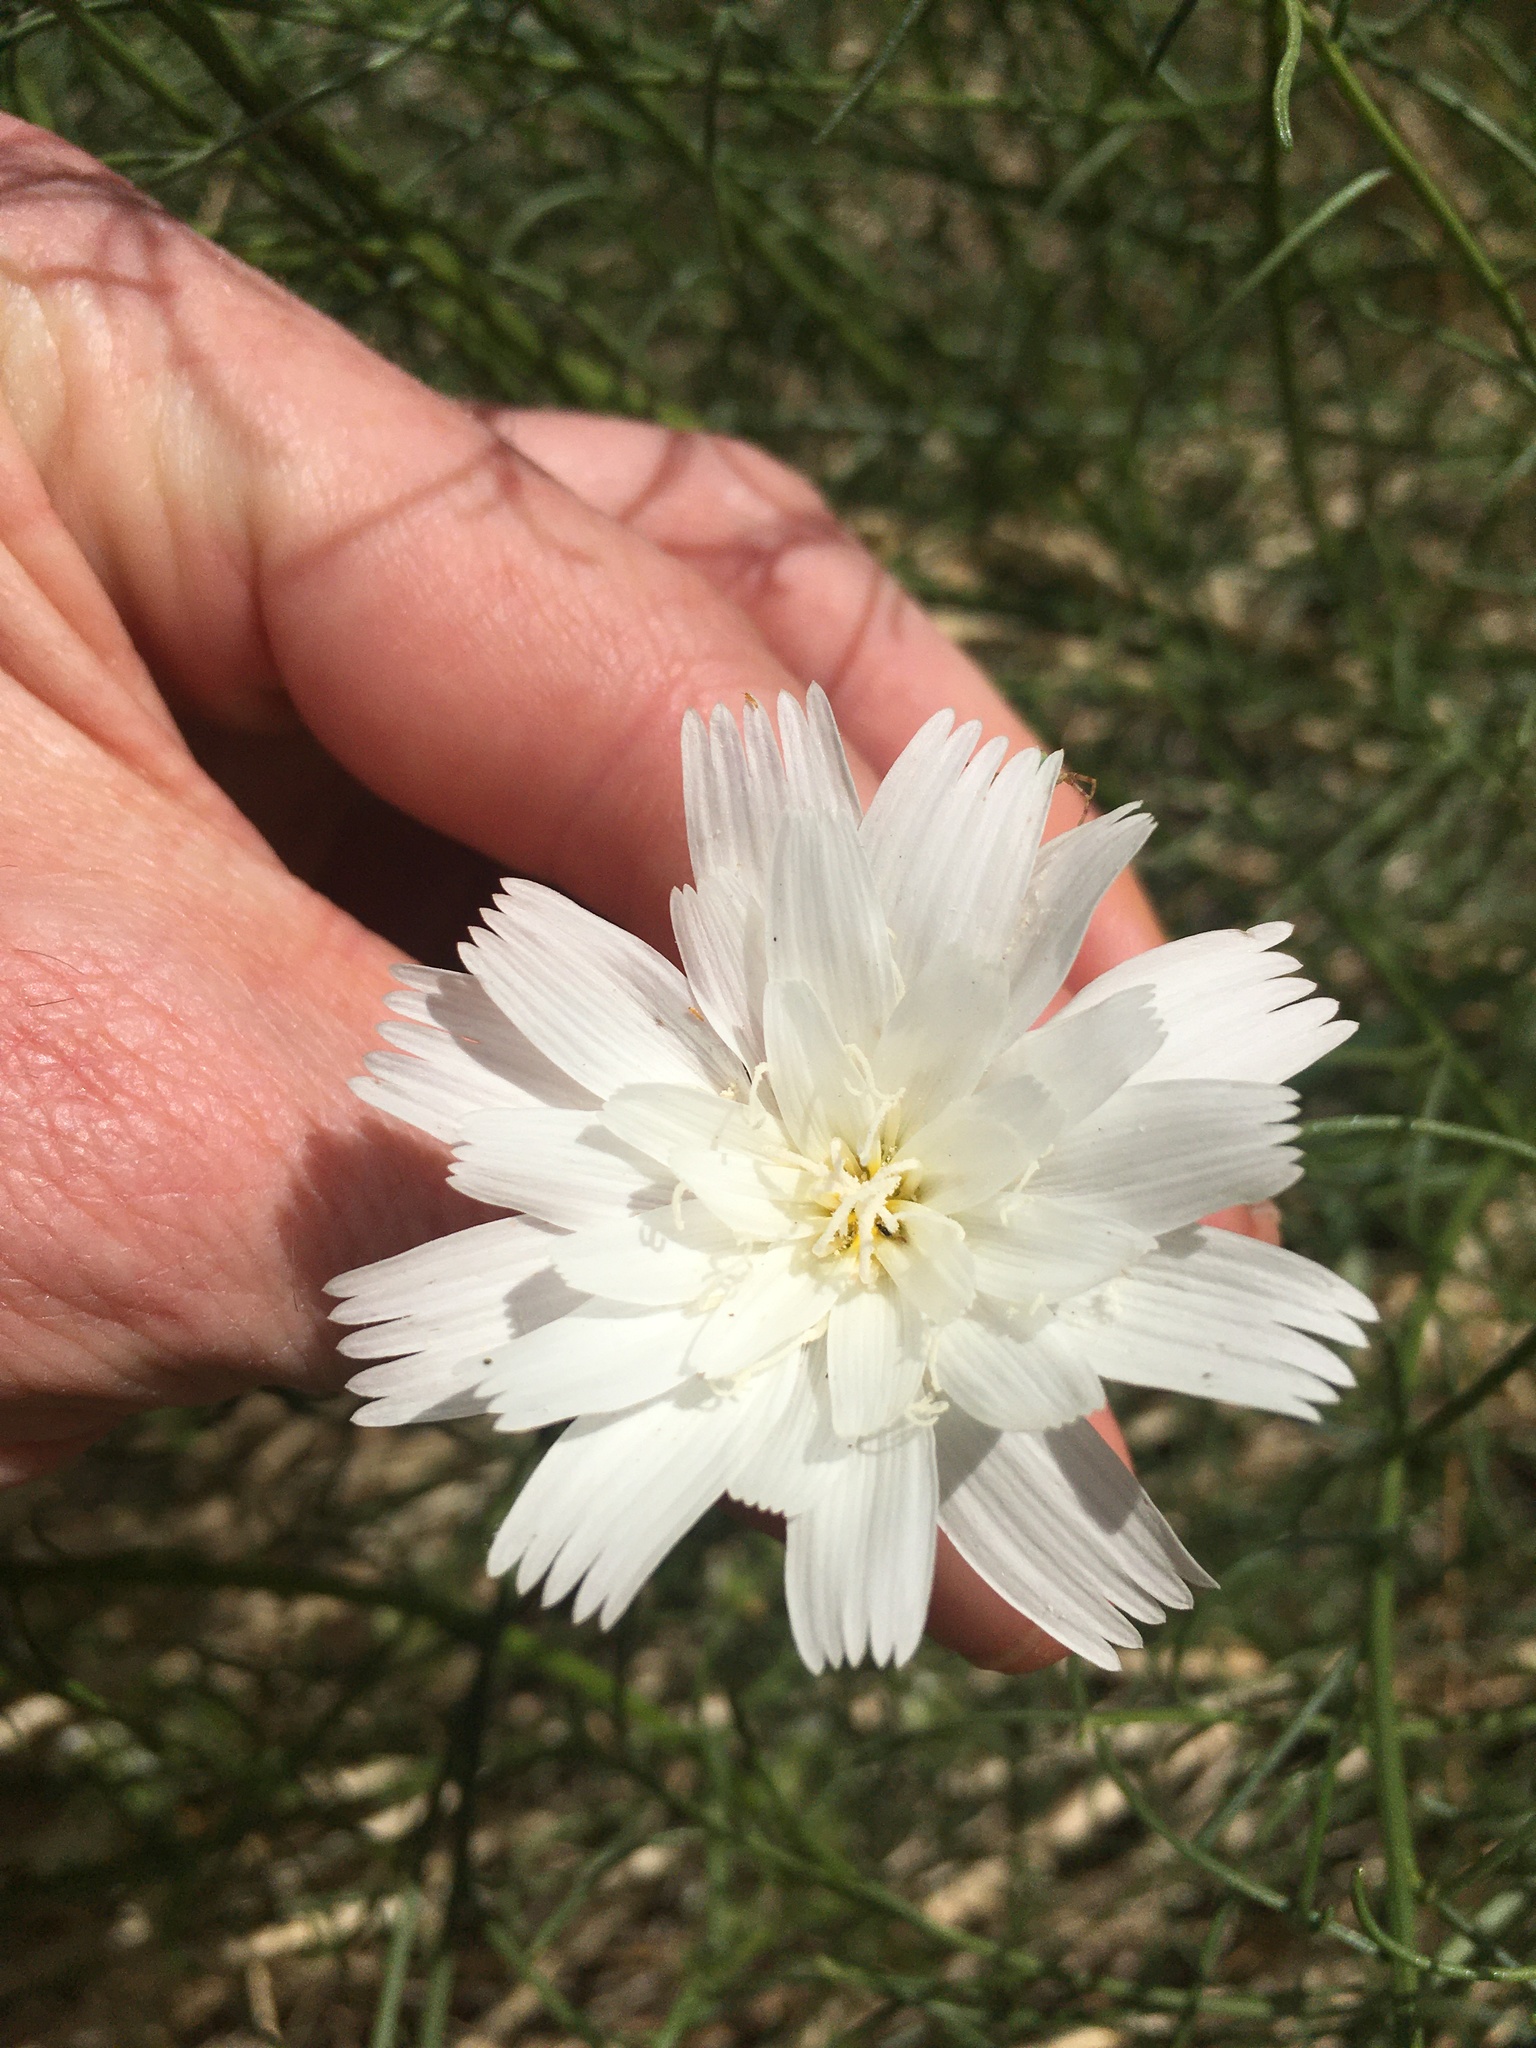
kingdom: Plantae
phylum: Tracheophyta
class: Magnoliopsida
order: Asterales
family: Asteraceae
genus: Rafinesquia
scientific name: Rafinesquia neomexicana
